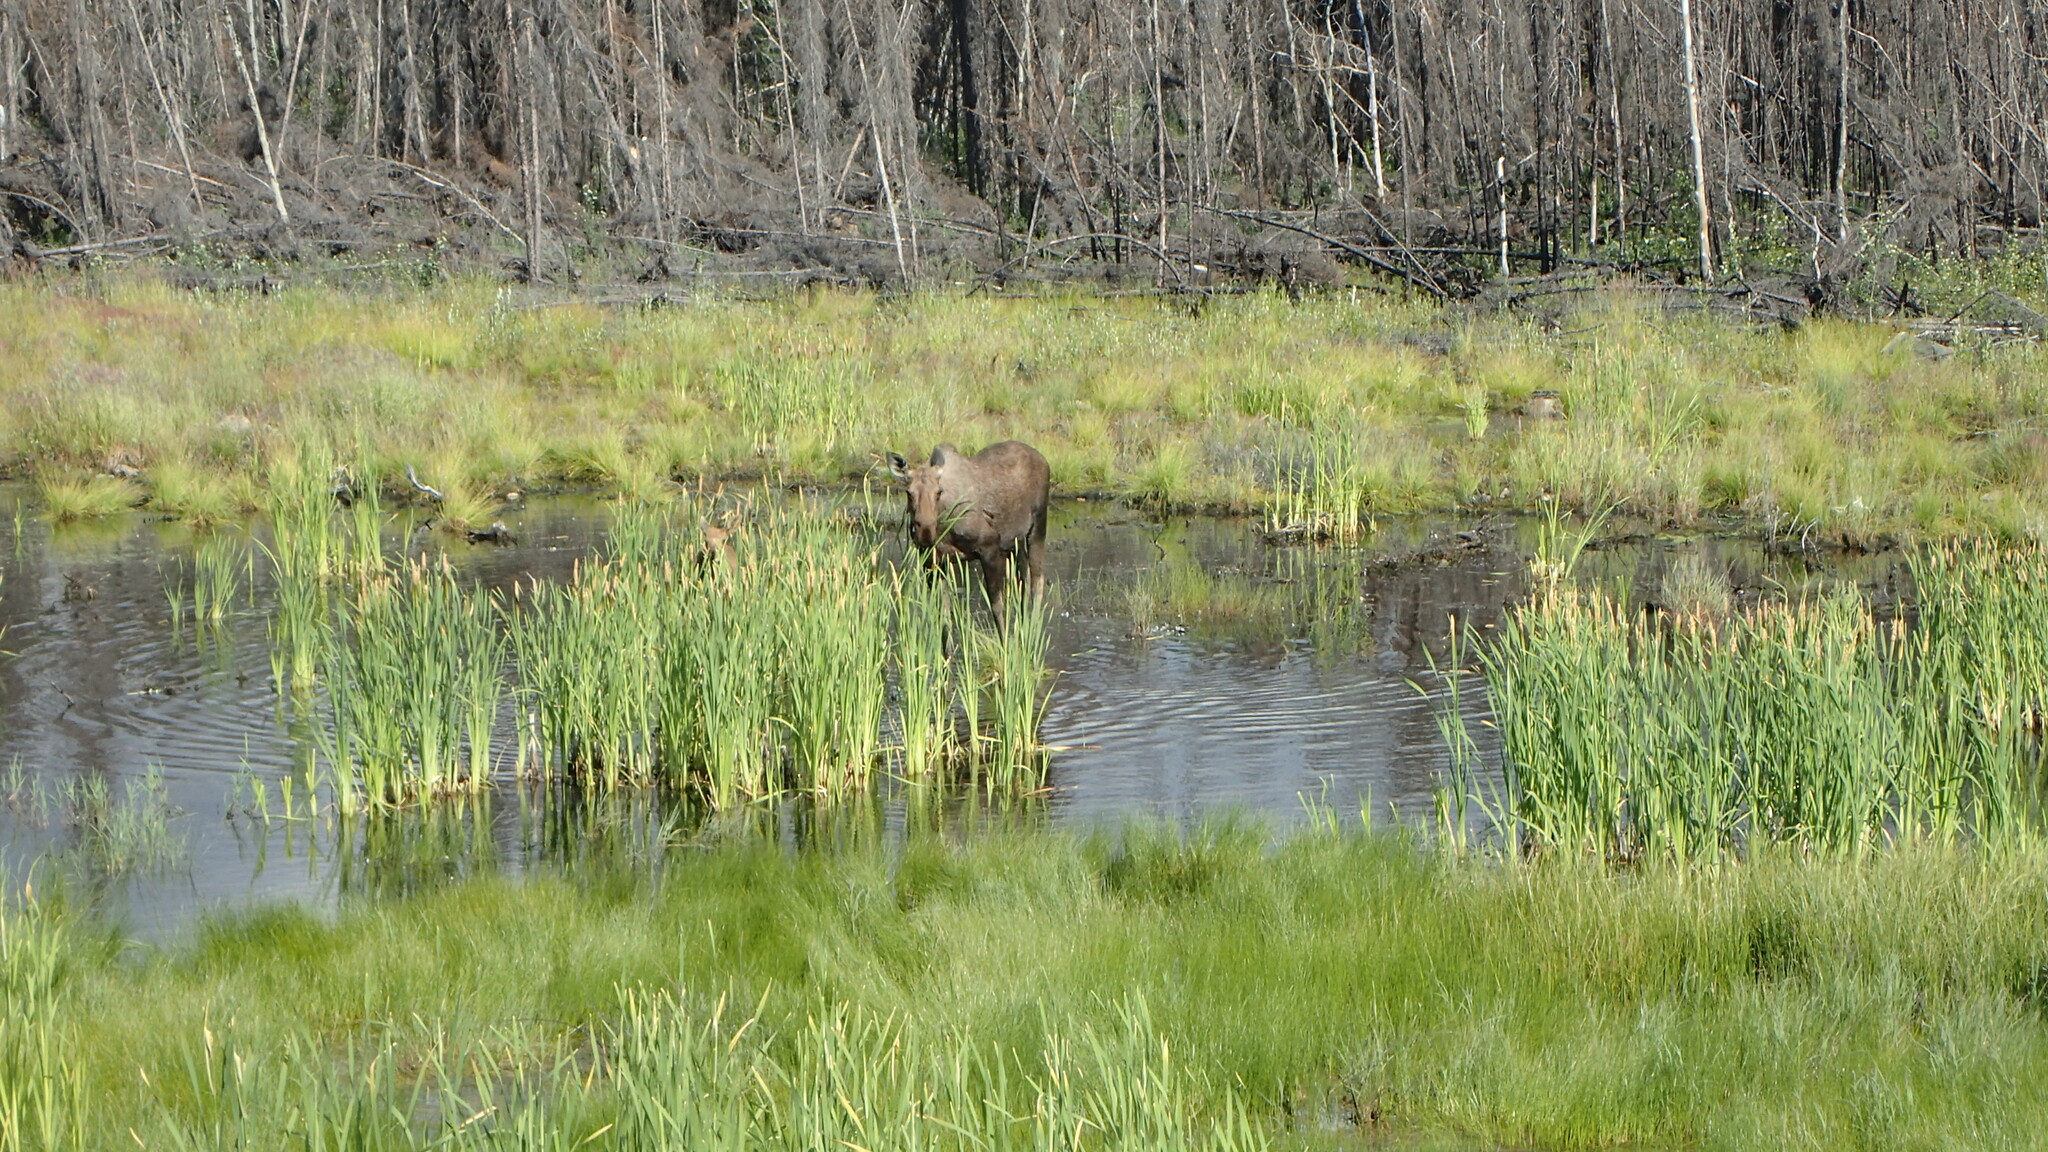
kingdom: Plantae
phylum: Tracheophyta
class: Liliopsida
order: Poales
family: Typhaceae
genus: Typha
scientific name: Typha latifolia
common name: Broadleaf cattail
